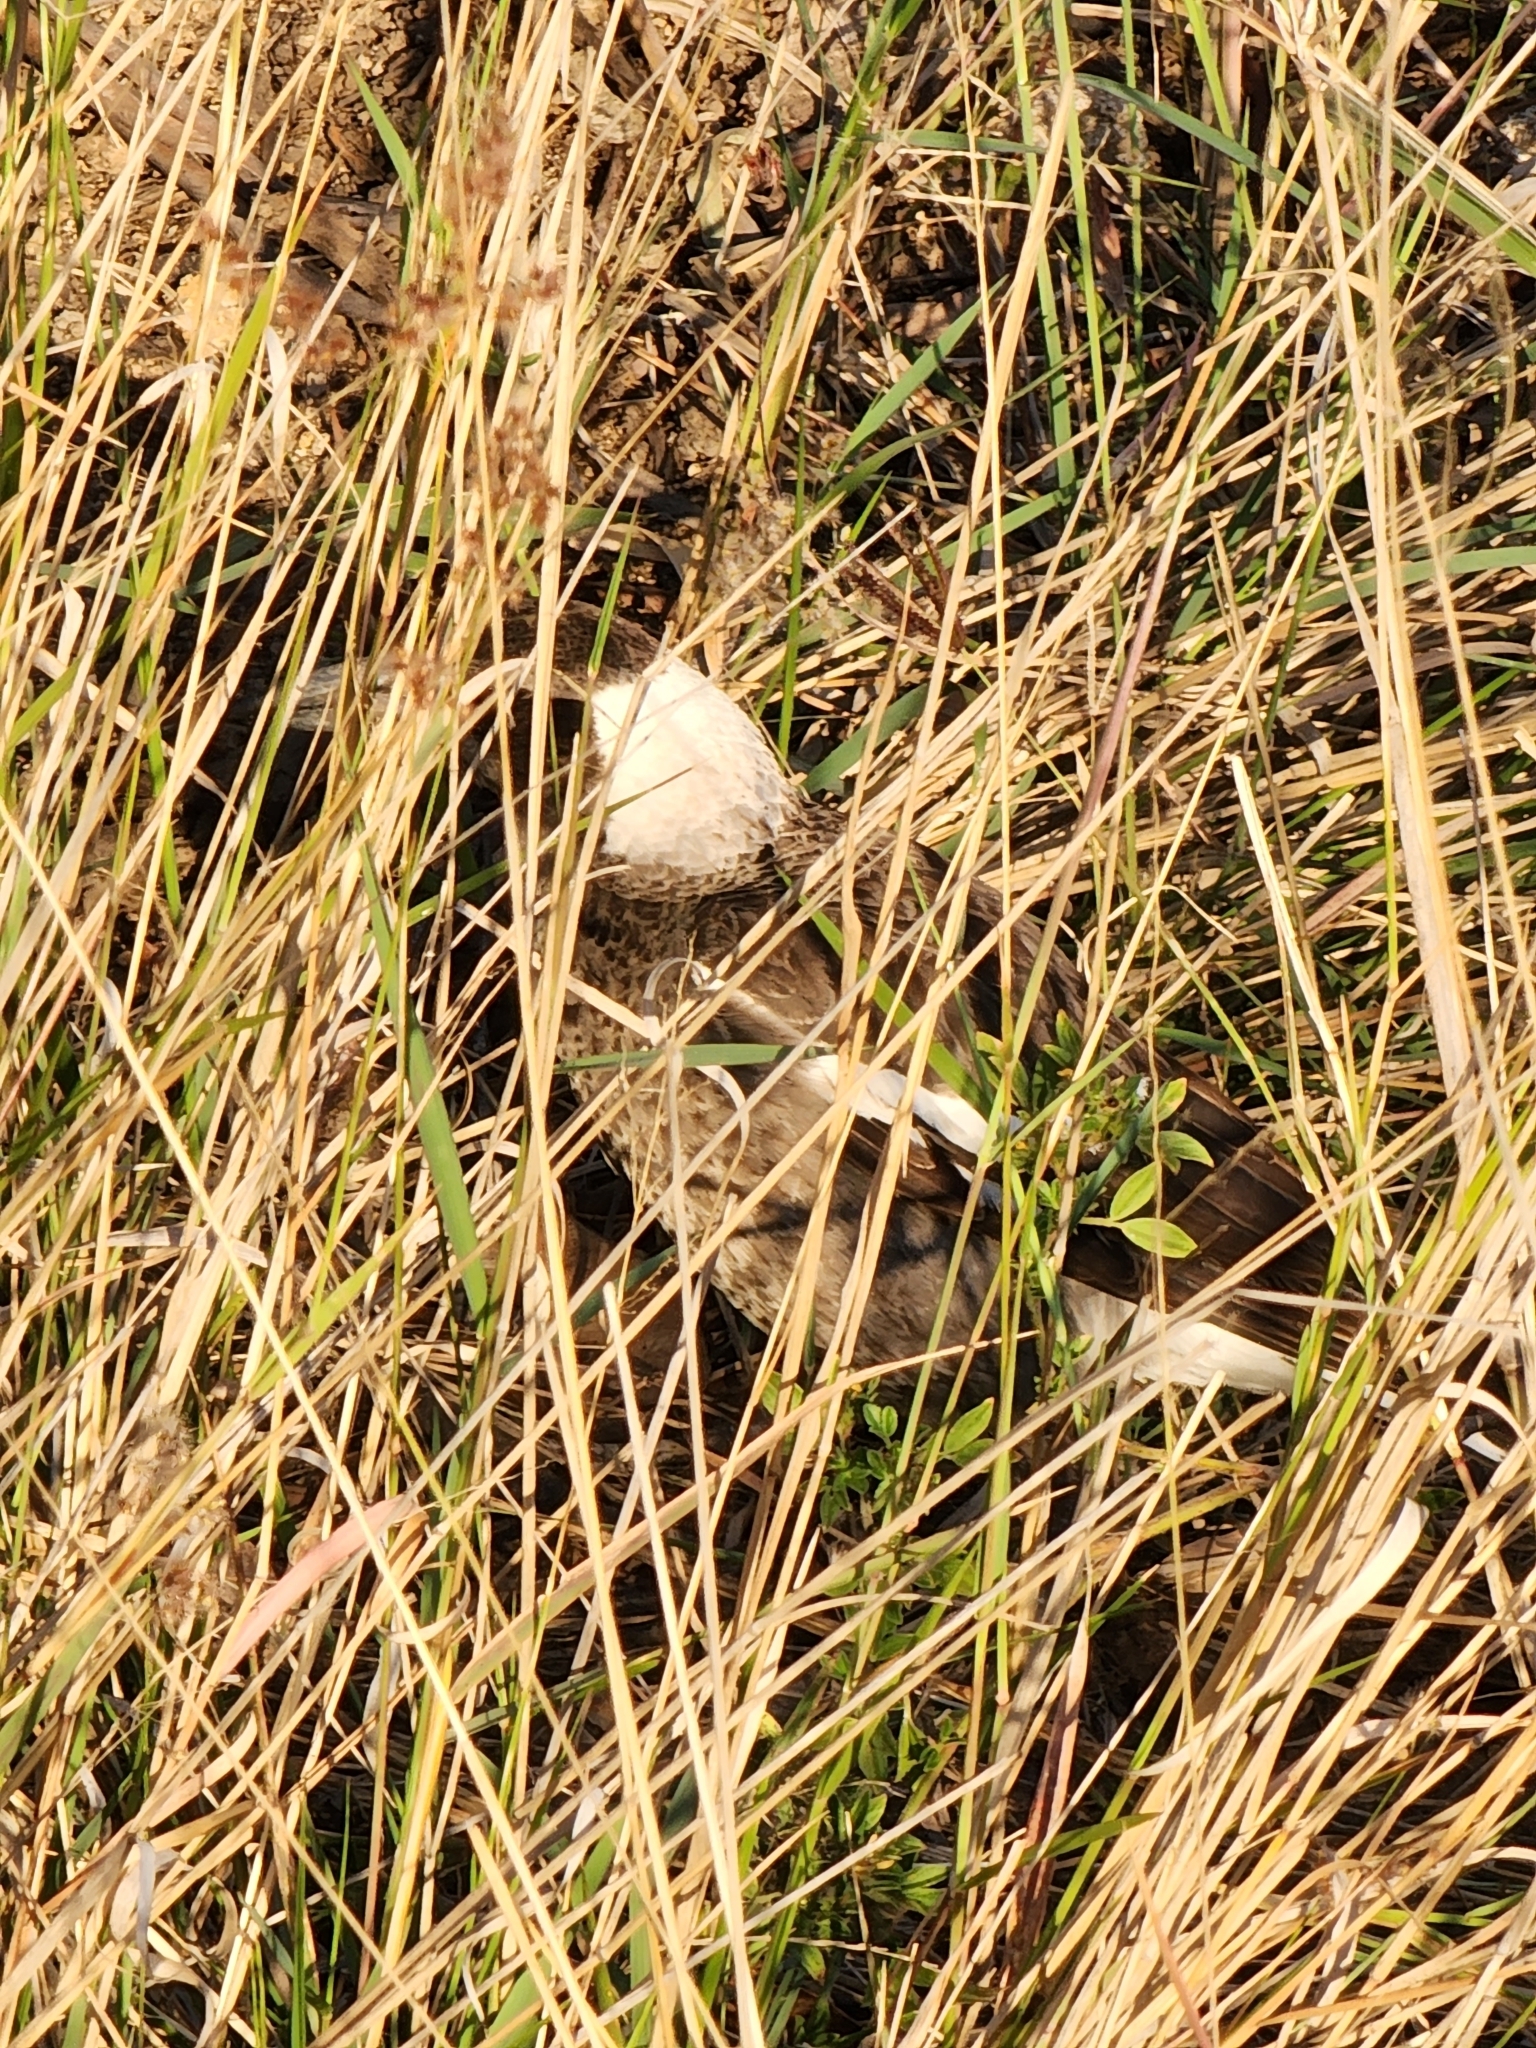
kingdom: Animalia
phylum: Chordata
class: Aves
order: Passeriformes
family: Cracticidae
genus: Gymnorhina
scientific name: Gymnorhina tibicen
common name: Australian magpie
